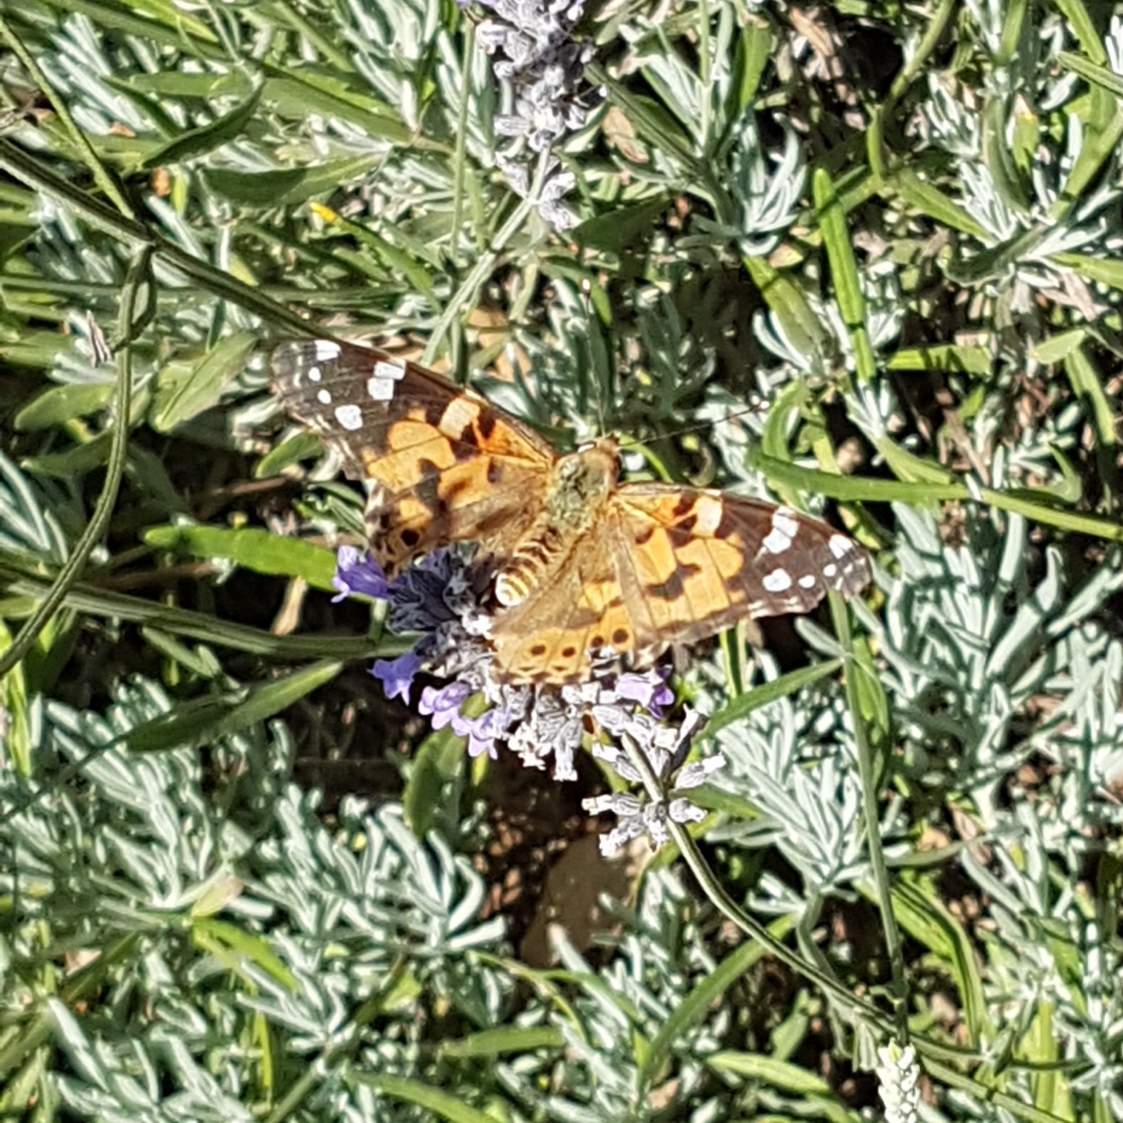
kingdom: Animalia
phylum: Arthropoda
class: Insecta
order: Lepidoptera
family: Nymphalidae
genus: Vanessa
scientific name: Vanessa cardui
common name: Painted lady
